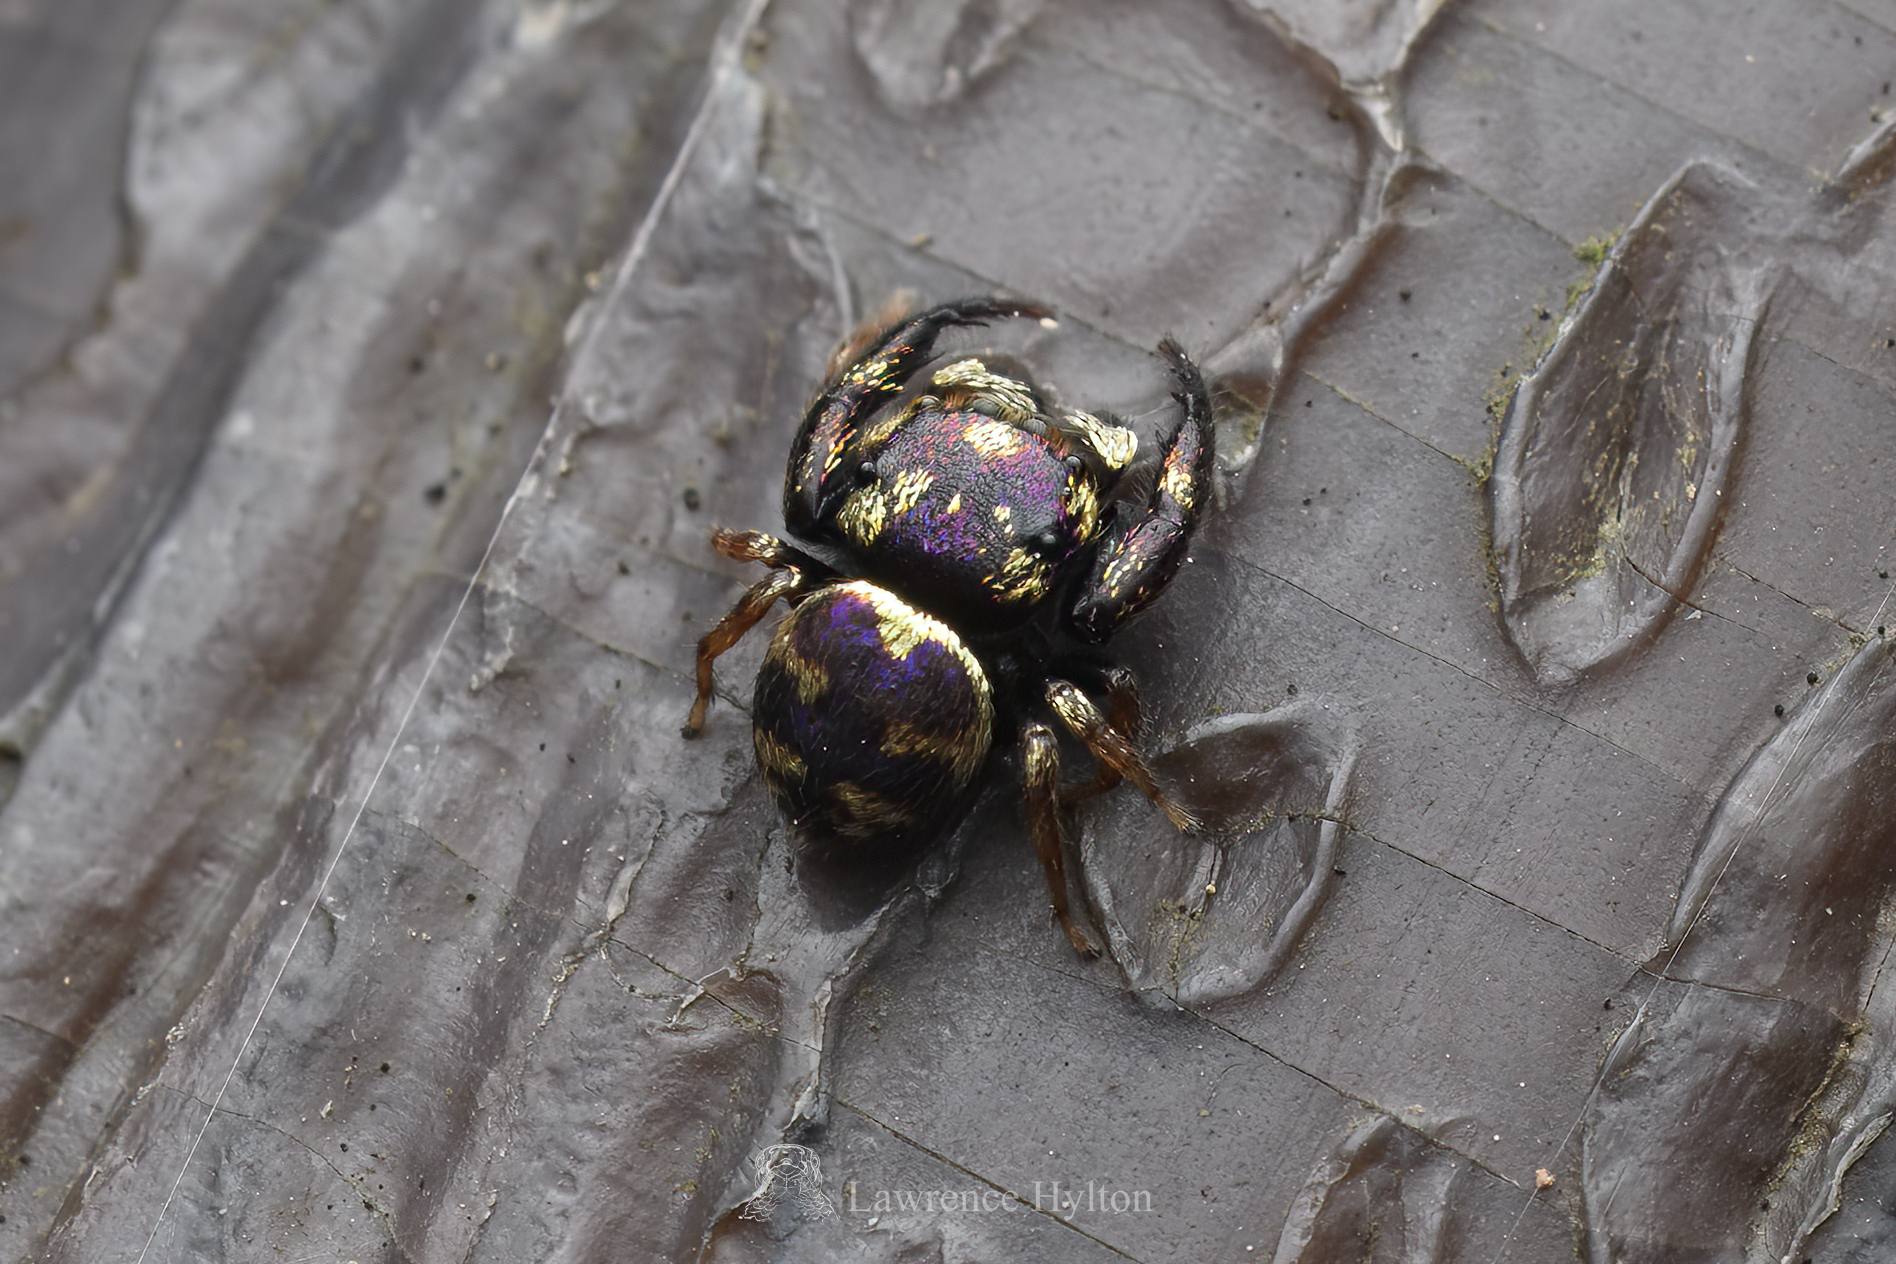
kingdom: Animalia
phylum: Arthropoda
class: Arachnida
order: Araneae
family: Salticidae
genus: Irura
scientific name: Irura bidenticulata
